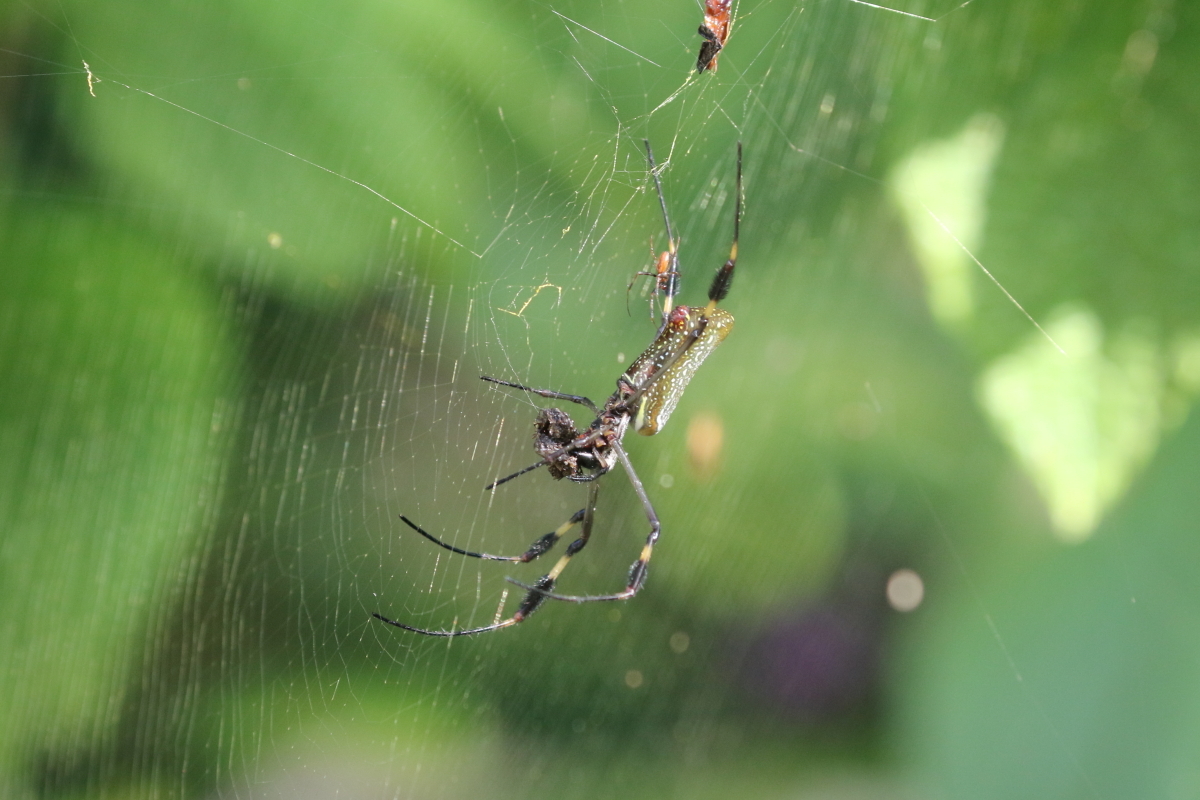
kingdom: Animalia
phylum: Arthropoda
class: Arachnida
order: Araneae
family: Araneidae
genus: Trichonephila
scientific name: Trichonephila clavipes
